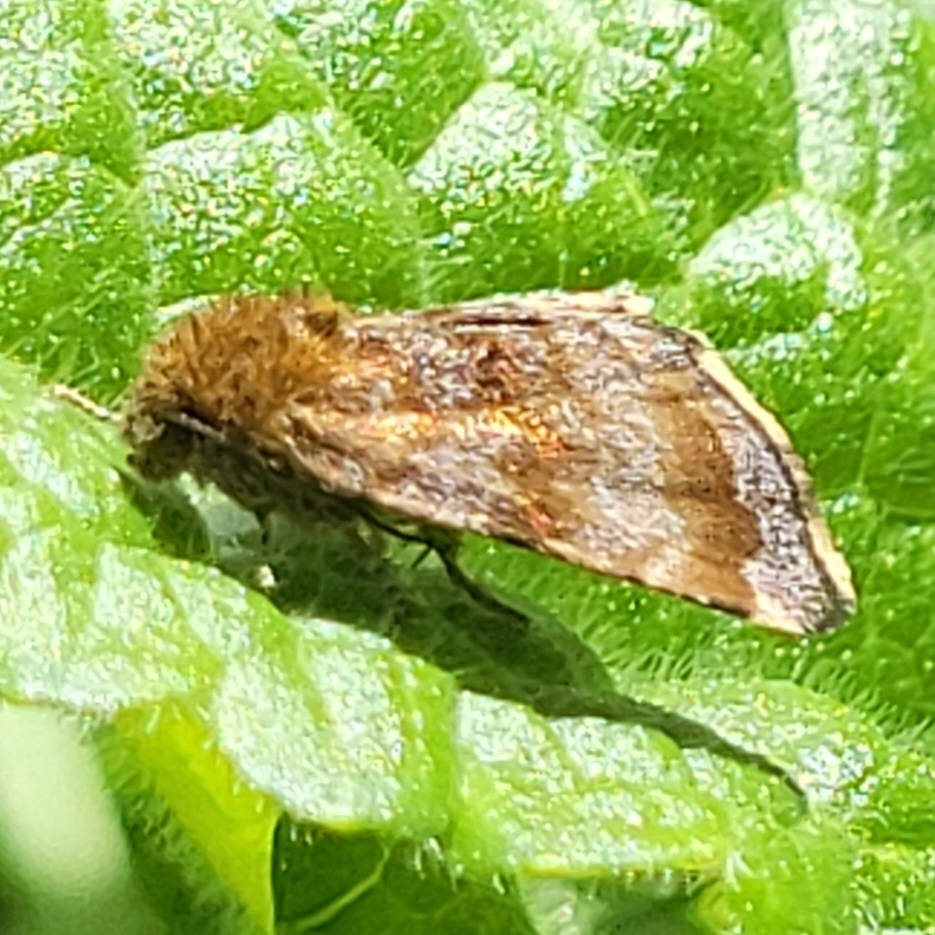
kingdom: Animalia
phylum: Arthropoda
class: Insecta
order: Lepidoptera
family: Noctuidae
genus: Panemeria
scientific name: Panemeria tenebrata
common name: Small yellow underwing
